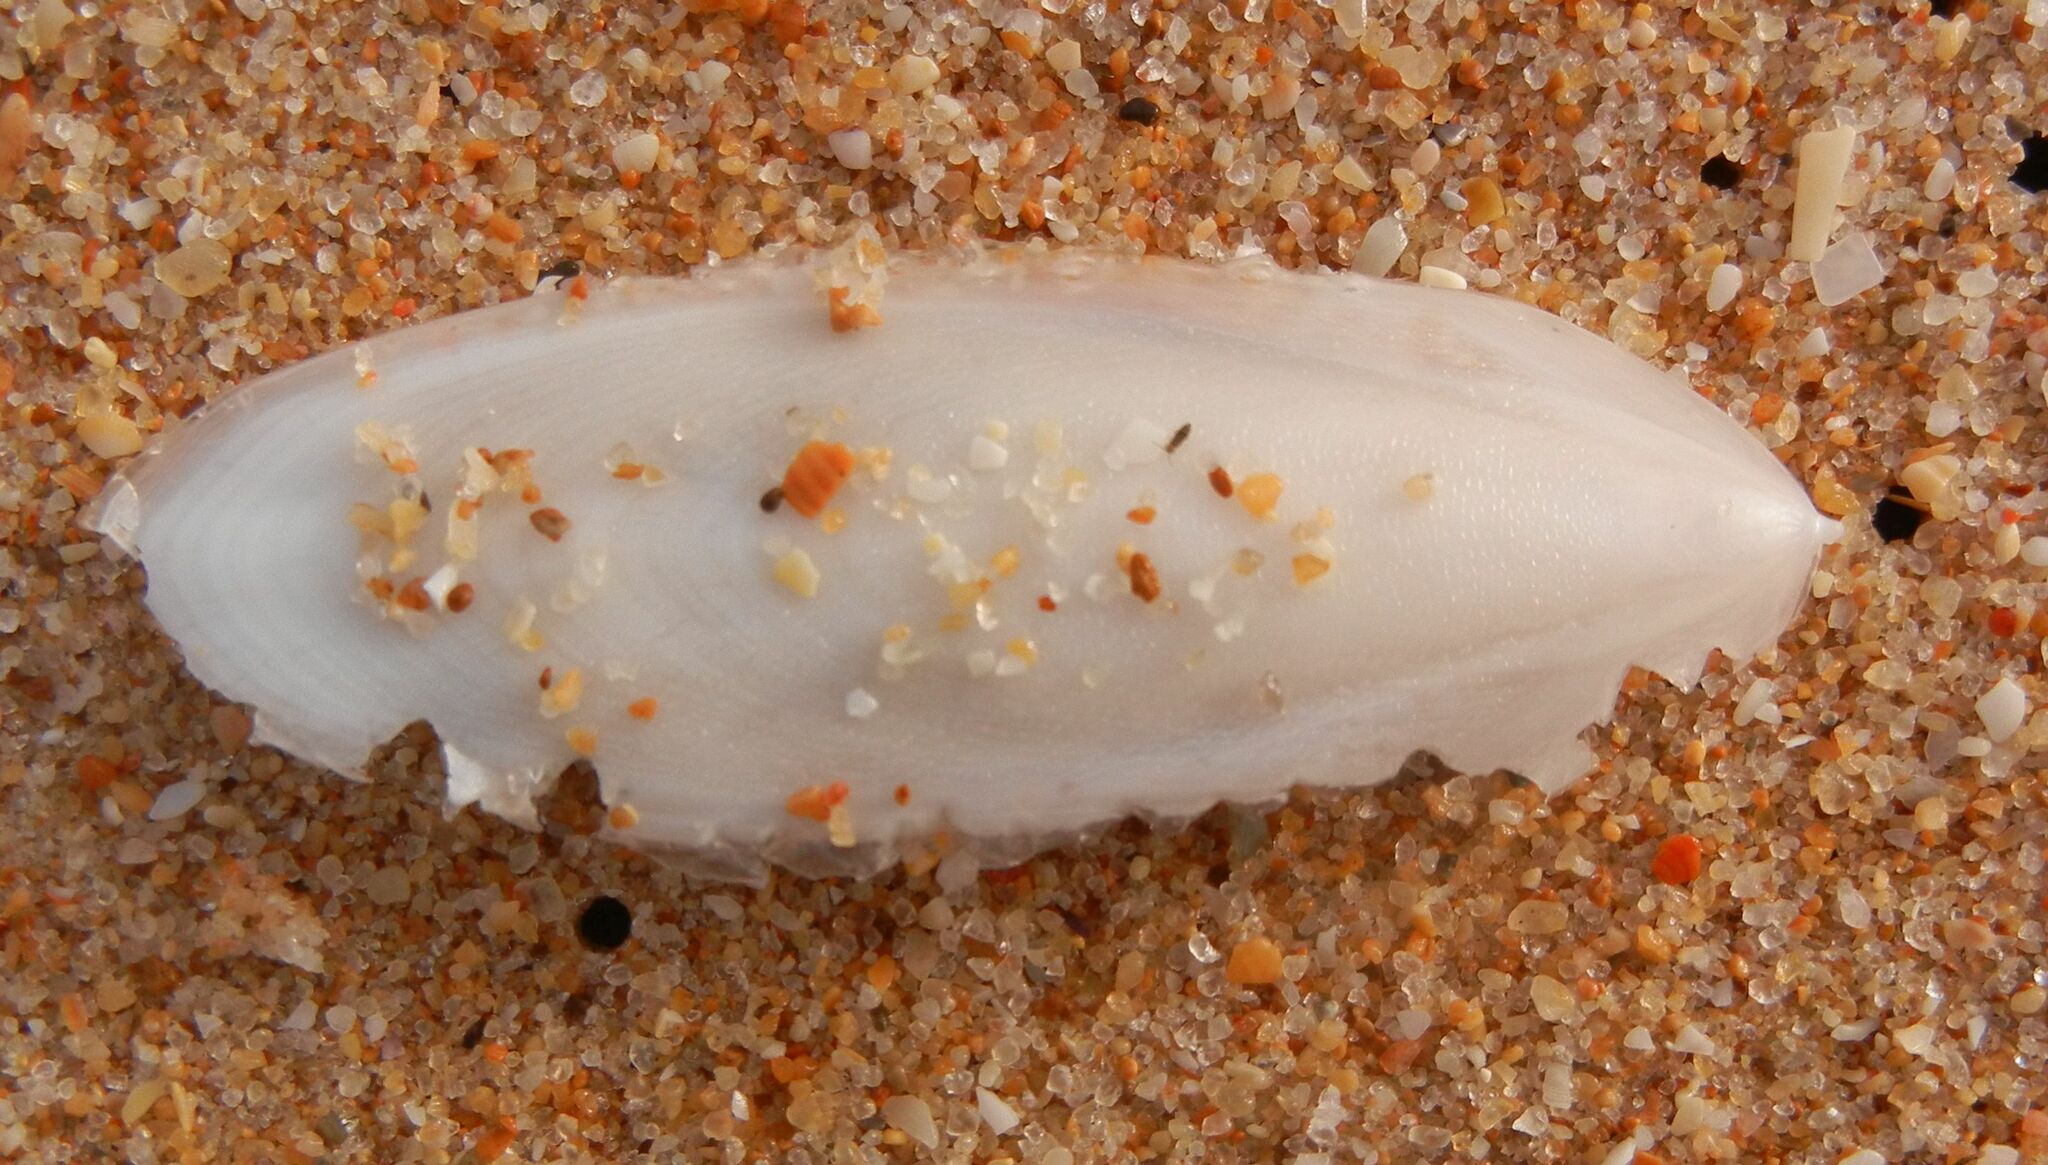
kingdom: Animalia
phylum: Mollusca
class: Cephalopoda
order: Sepiida
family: Sepiidae
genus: Rhombosepion
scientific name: Rhombosepion orbignyanum
